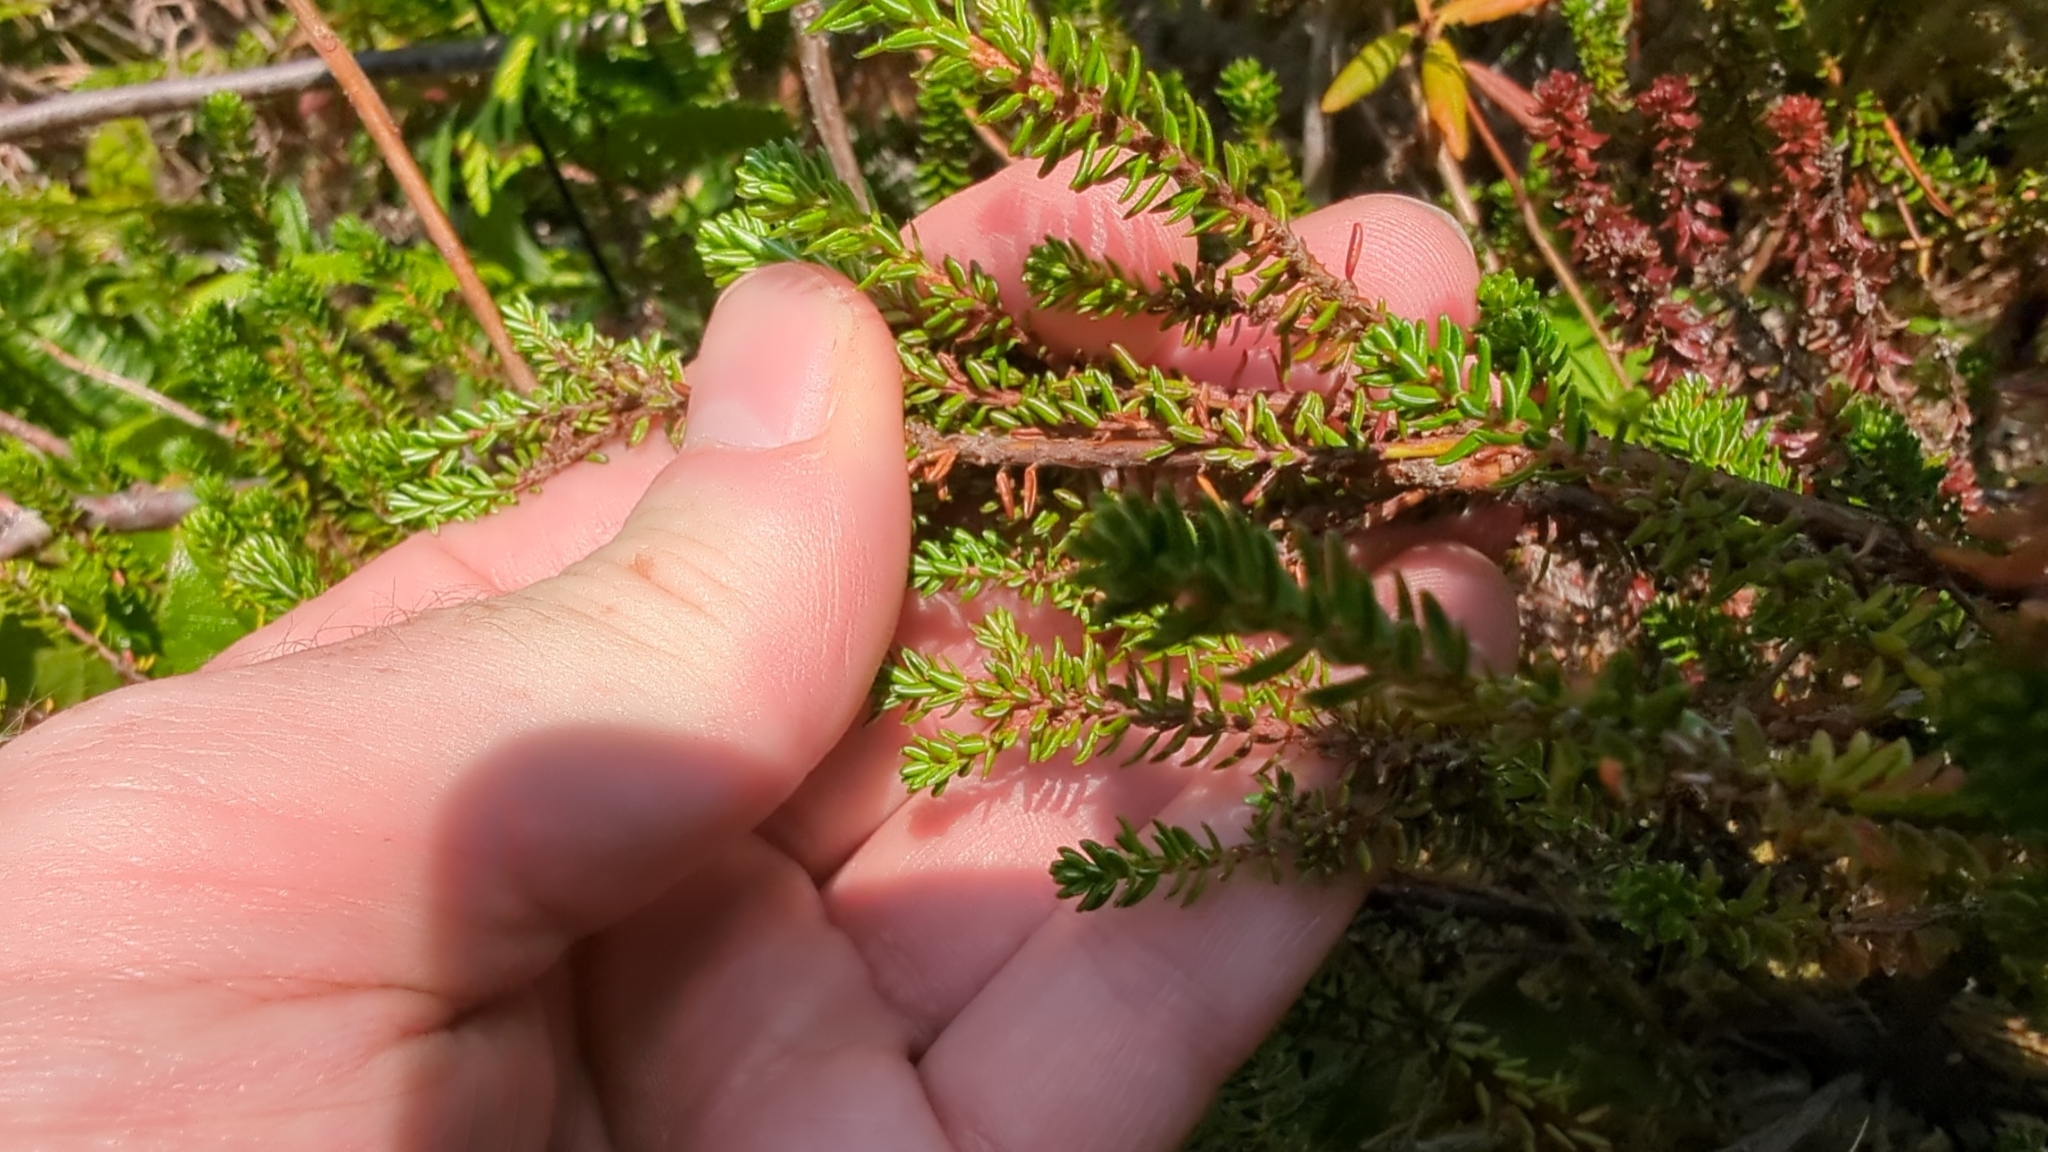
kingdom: Plantae
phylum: Tracheophyta
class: Magnoliopsida
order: Ericales
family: Ericaceae
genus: Empetrum
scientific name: Empetrum nigrum
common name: Black crowberry
